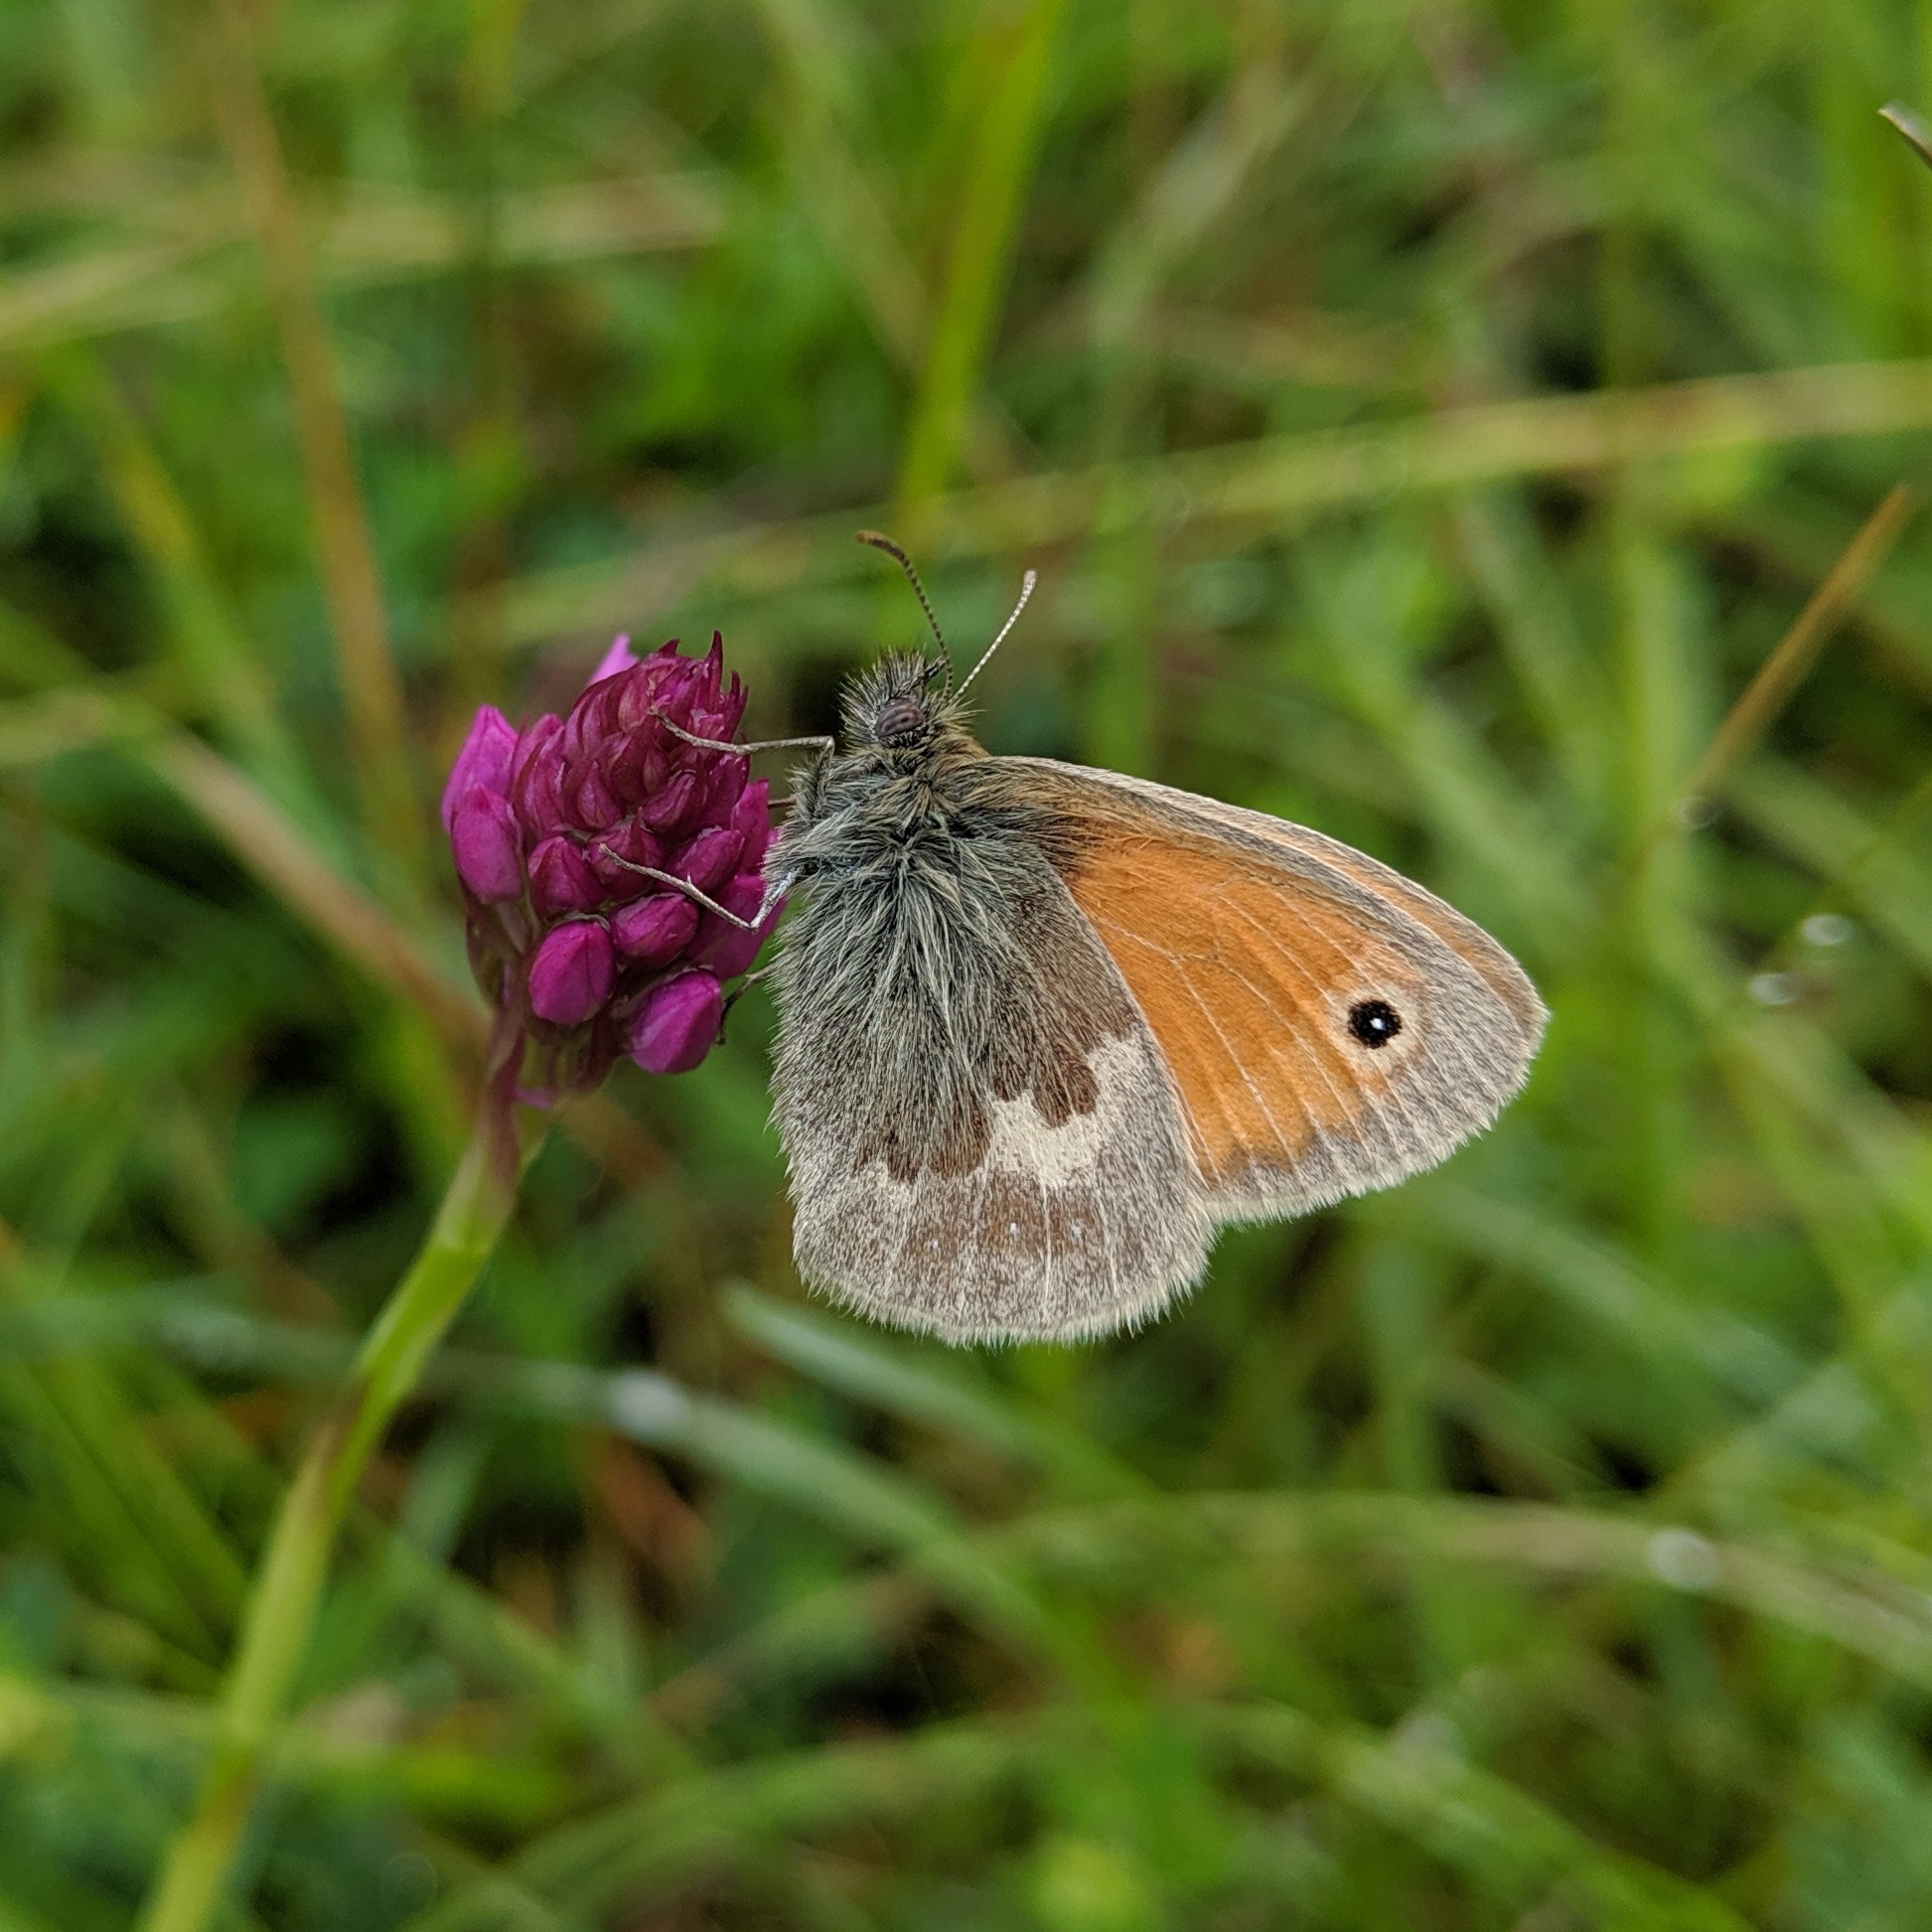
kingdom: Animalia
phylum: Arthropoda
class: Insecta
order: Lepidoptera
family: Nymphalidae
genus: Coenonympha
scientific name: Coenonympha pamphilus
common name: Small heath
